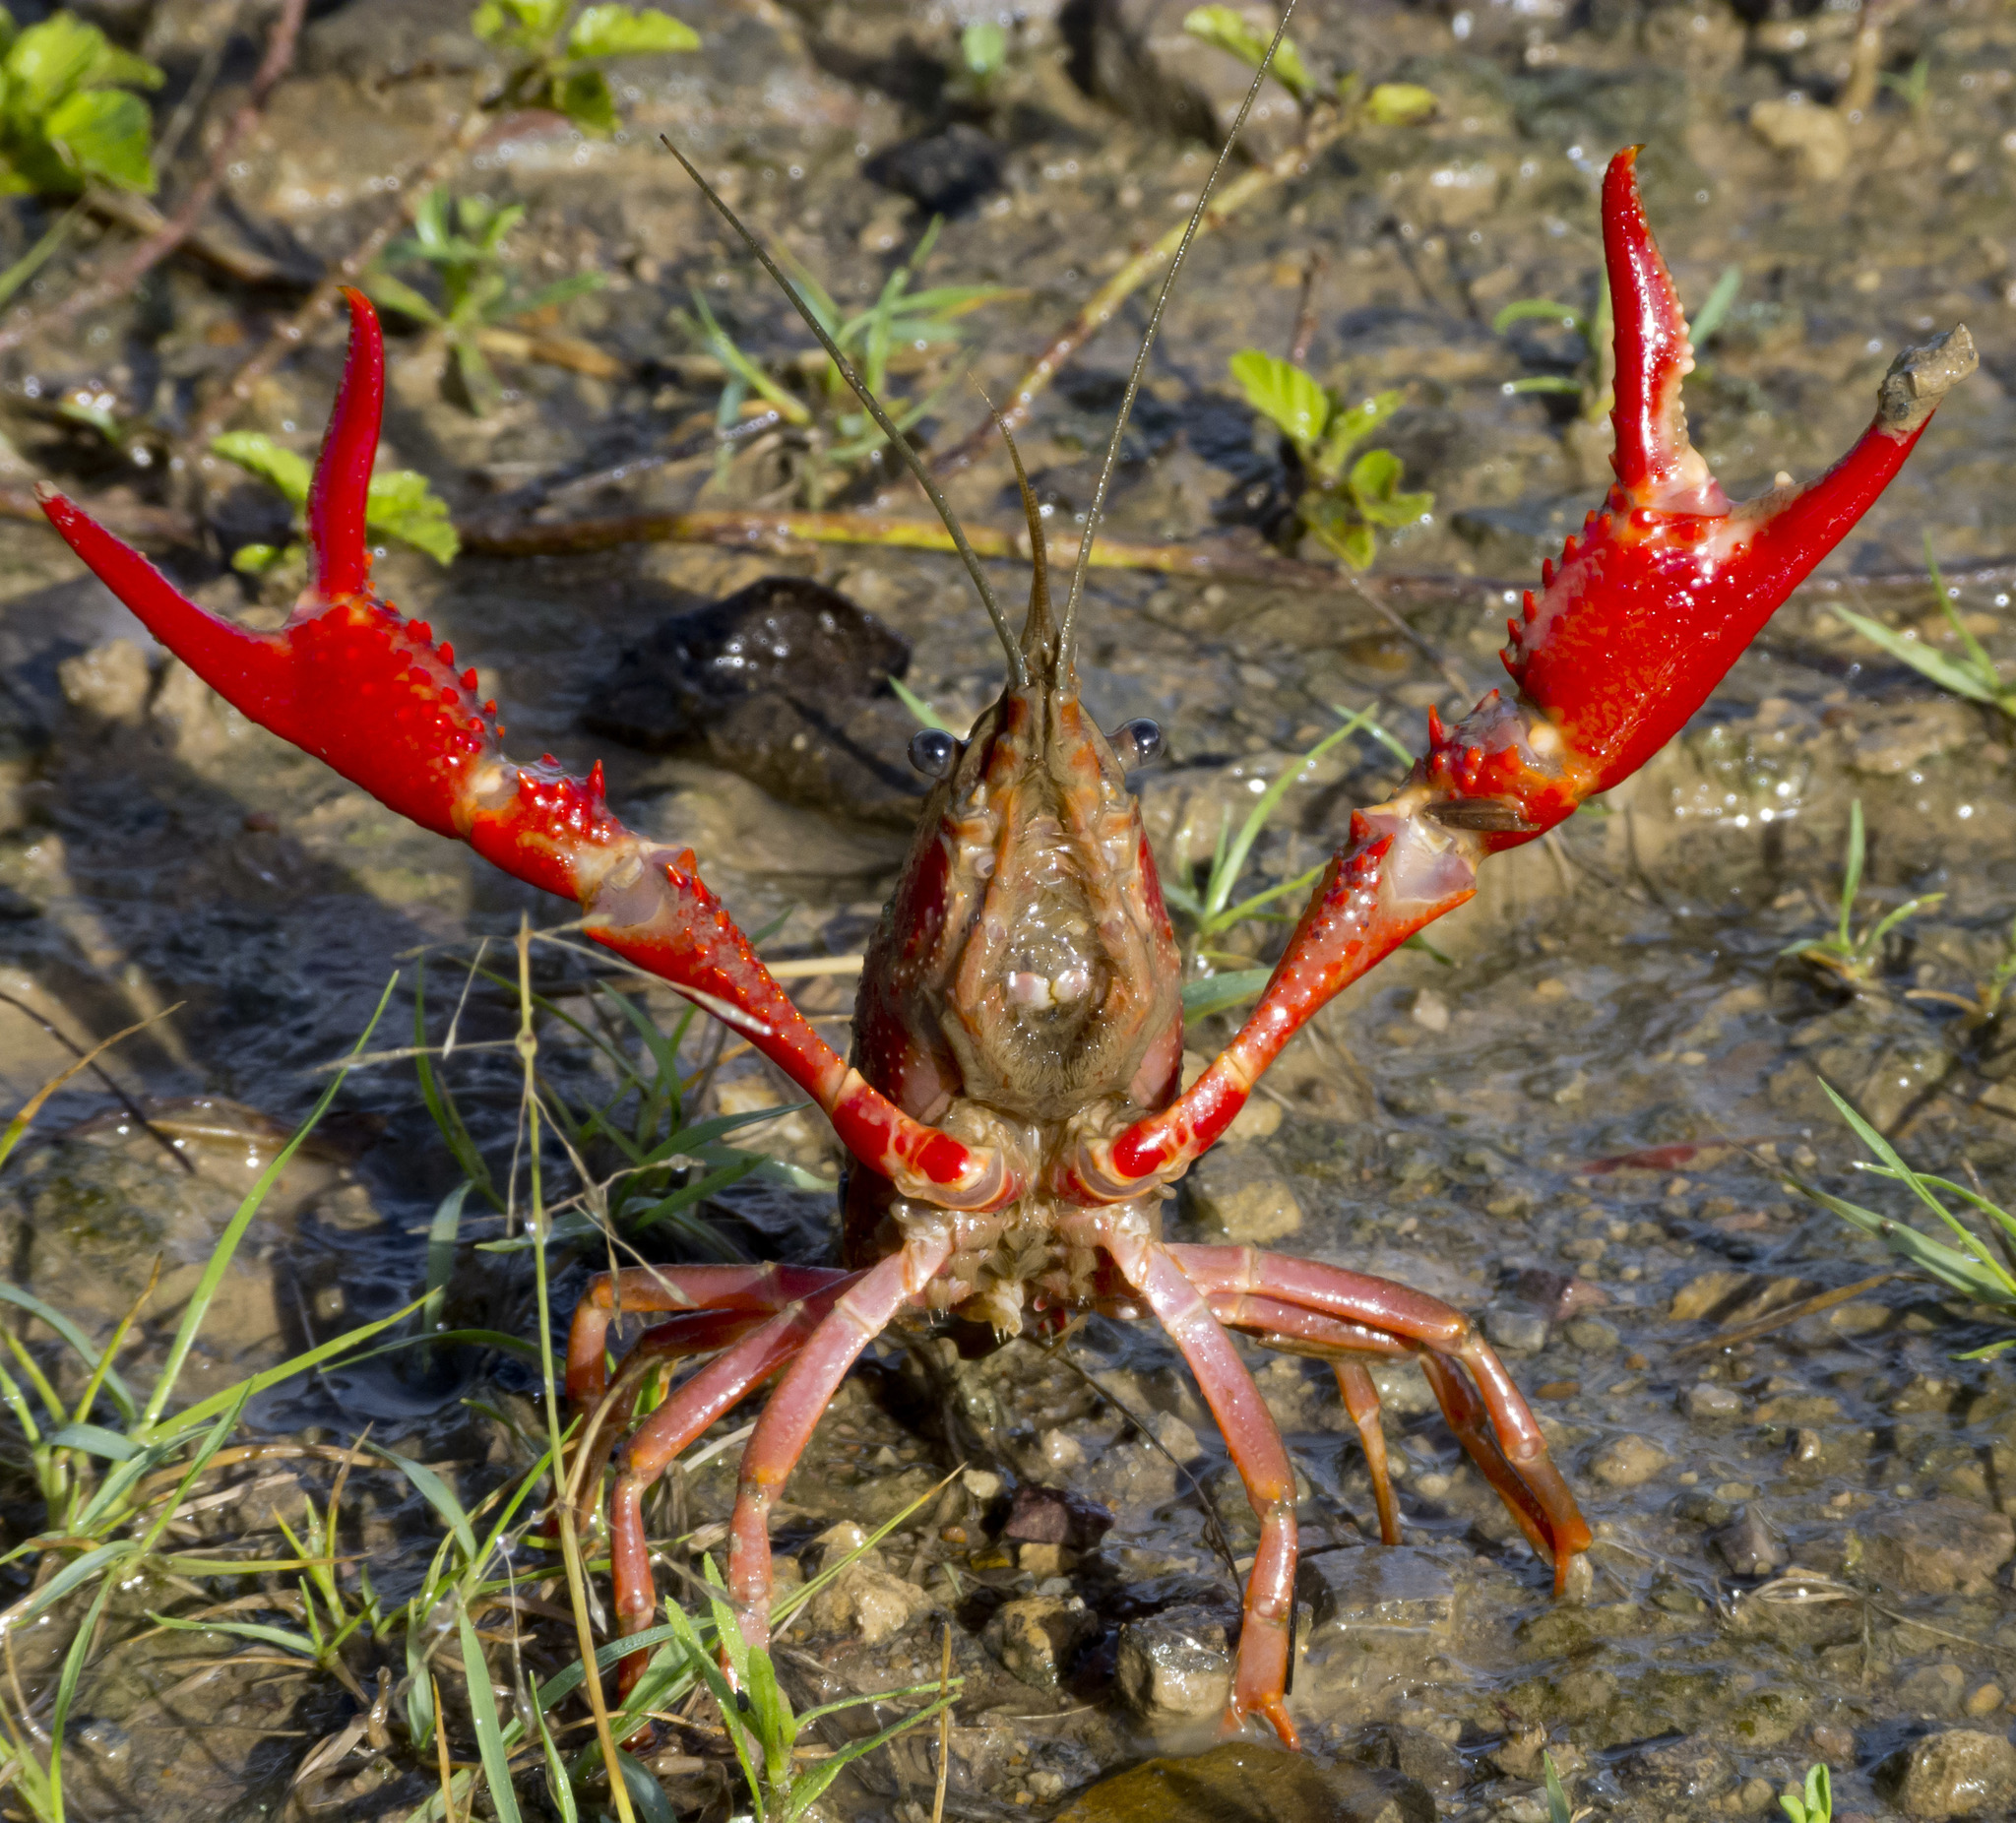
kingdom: Animalia
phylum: Arthropoda
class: Malacostraca
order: Decapoda
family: Cambaridae
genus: Procambarus
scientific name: Procambarus clarkii
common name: Red swamp crayfish
